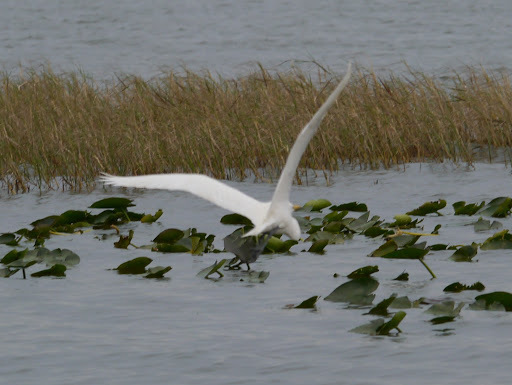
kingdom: Animalia
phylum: Chordata
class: Aves
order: Pelecaniformes
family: Ardeidae
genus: Ardea
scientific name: Ardea alba
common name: Great egret
